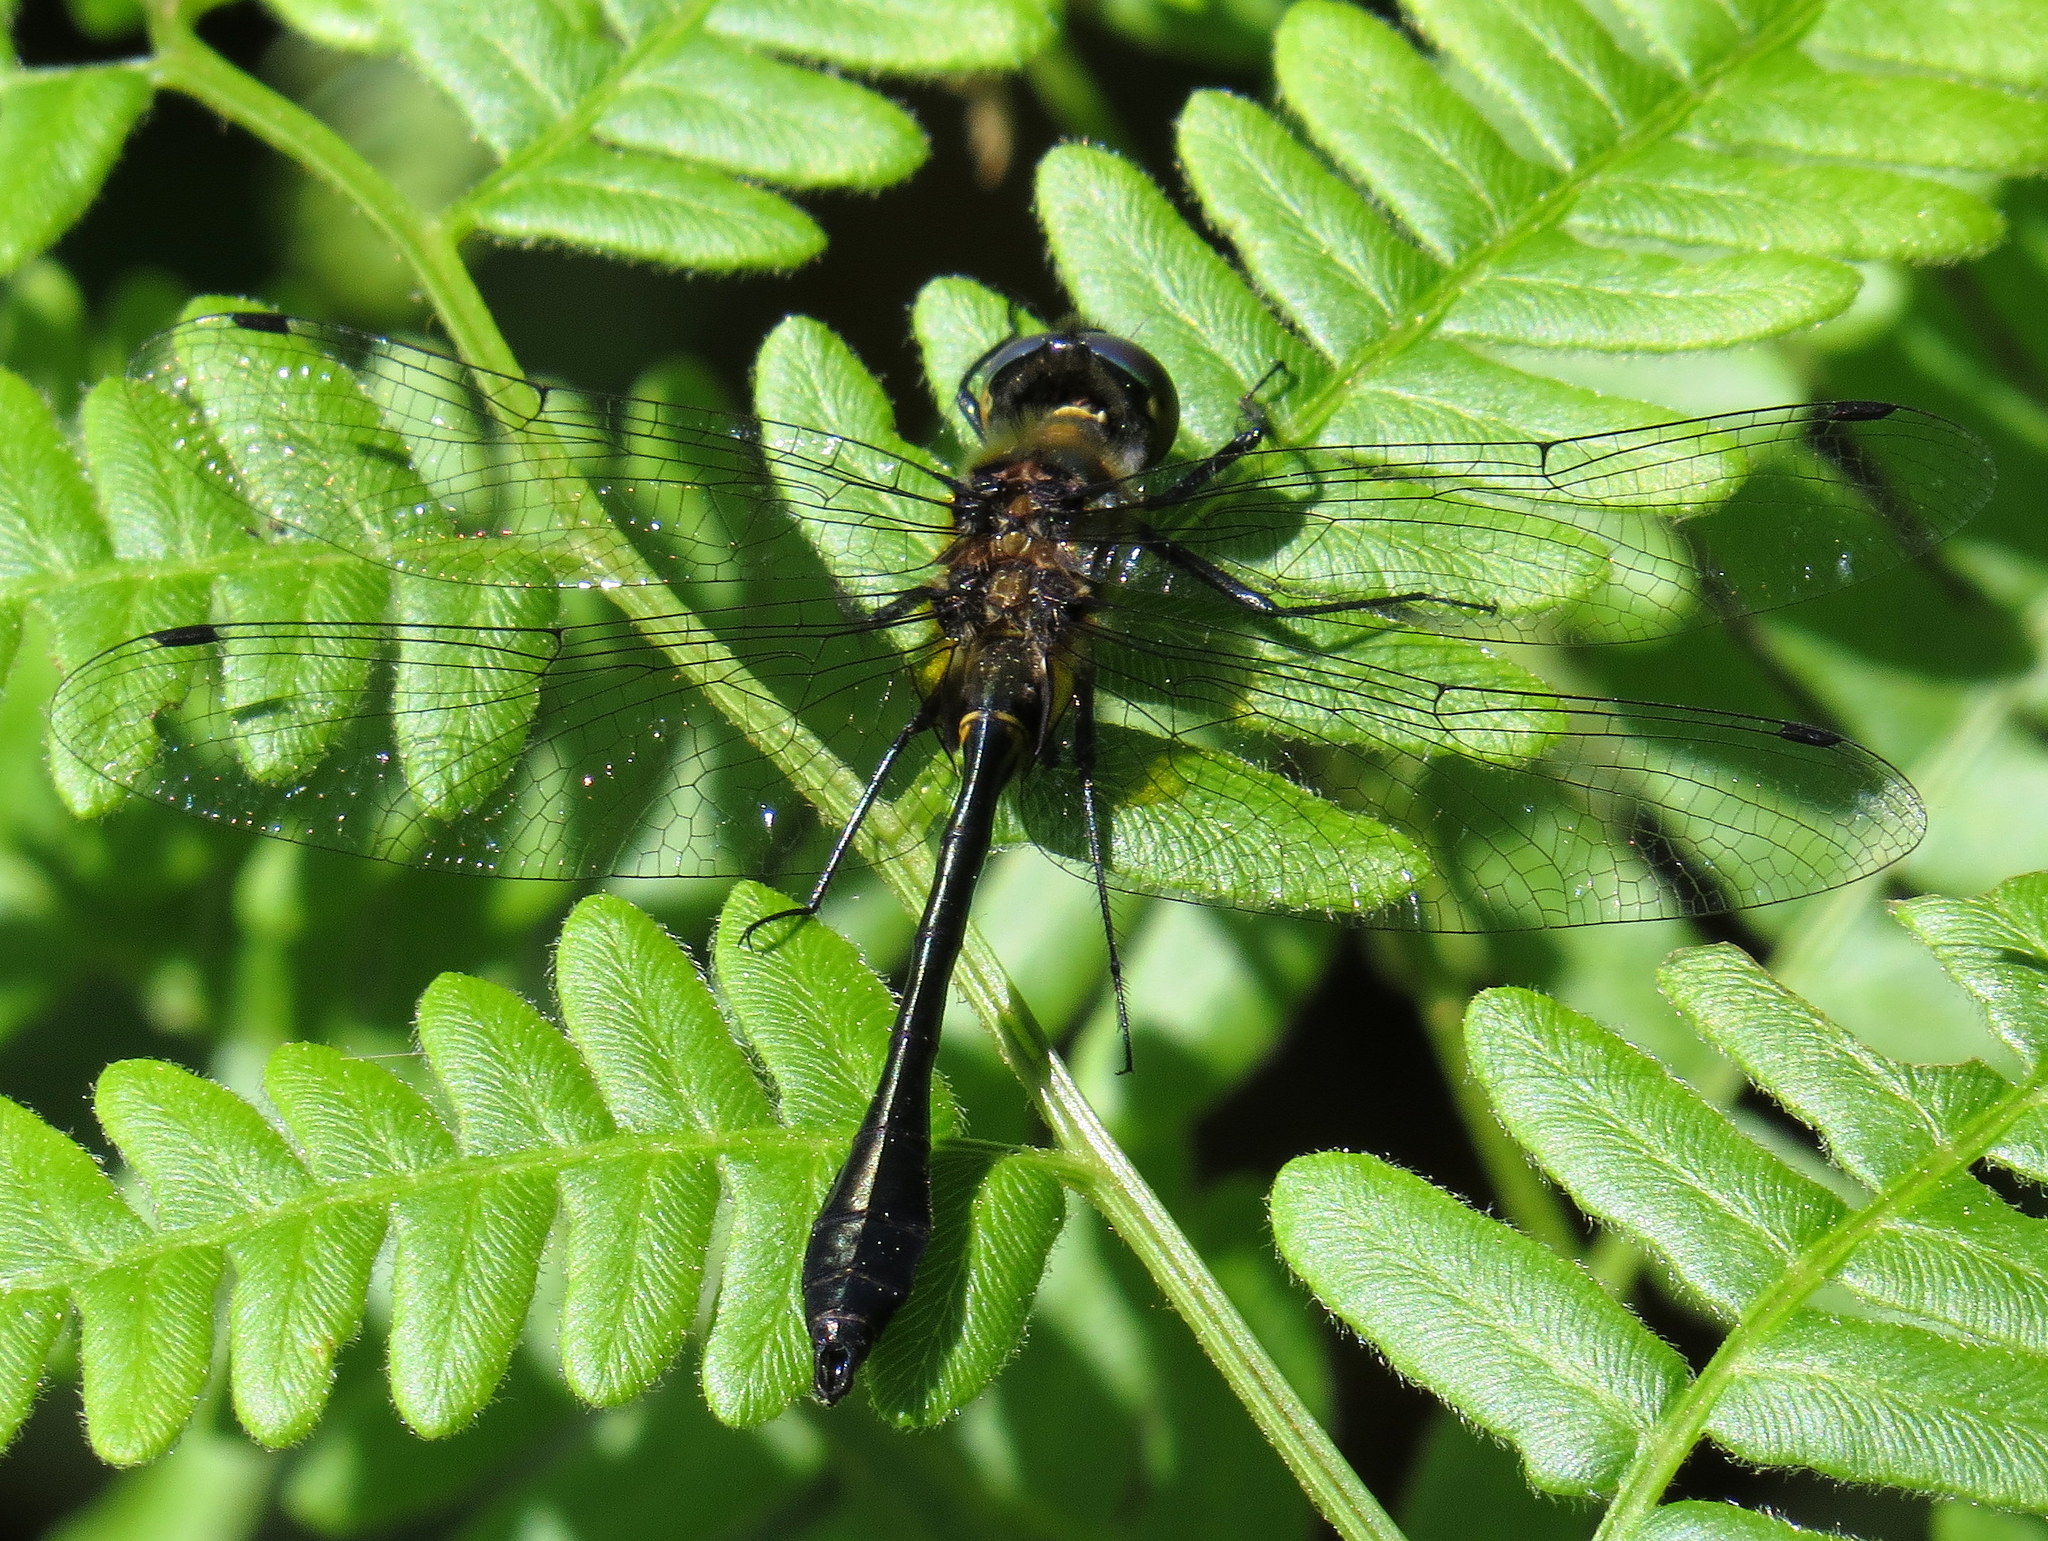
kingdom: Animalia
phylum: Arthropoda
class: Insecta
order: Odonata
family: Corduliidae
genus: Dorocordulia
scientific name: Dorocordulia libera
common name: Racket-tailed emerald
